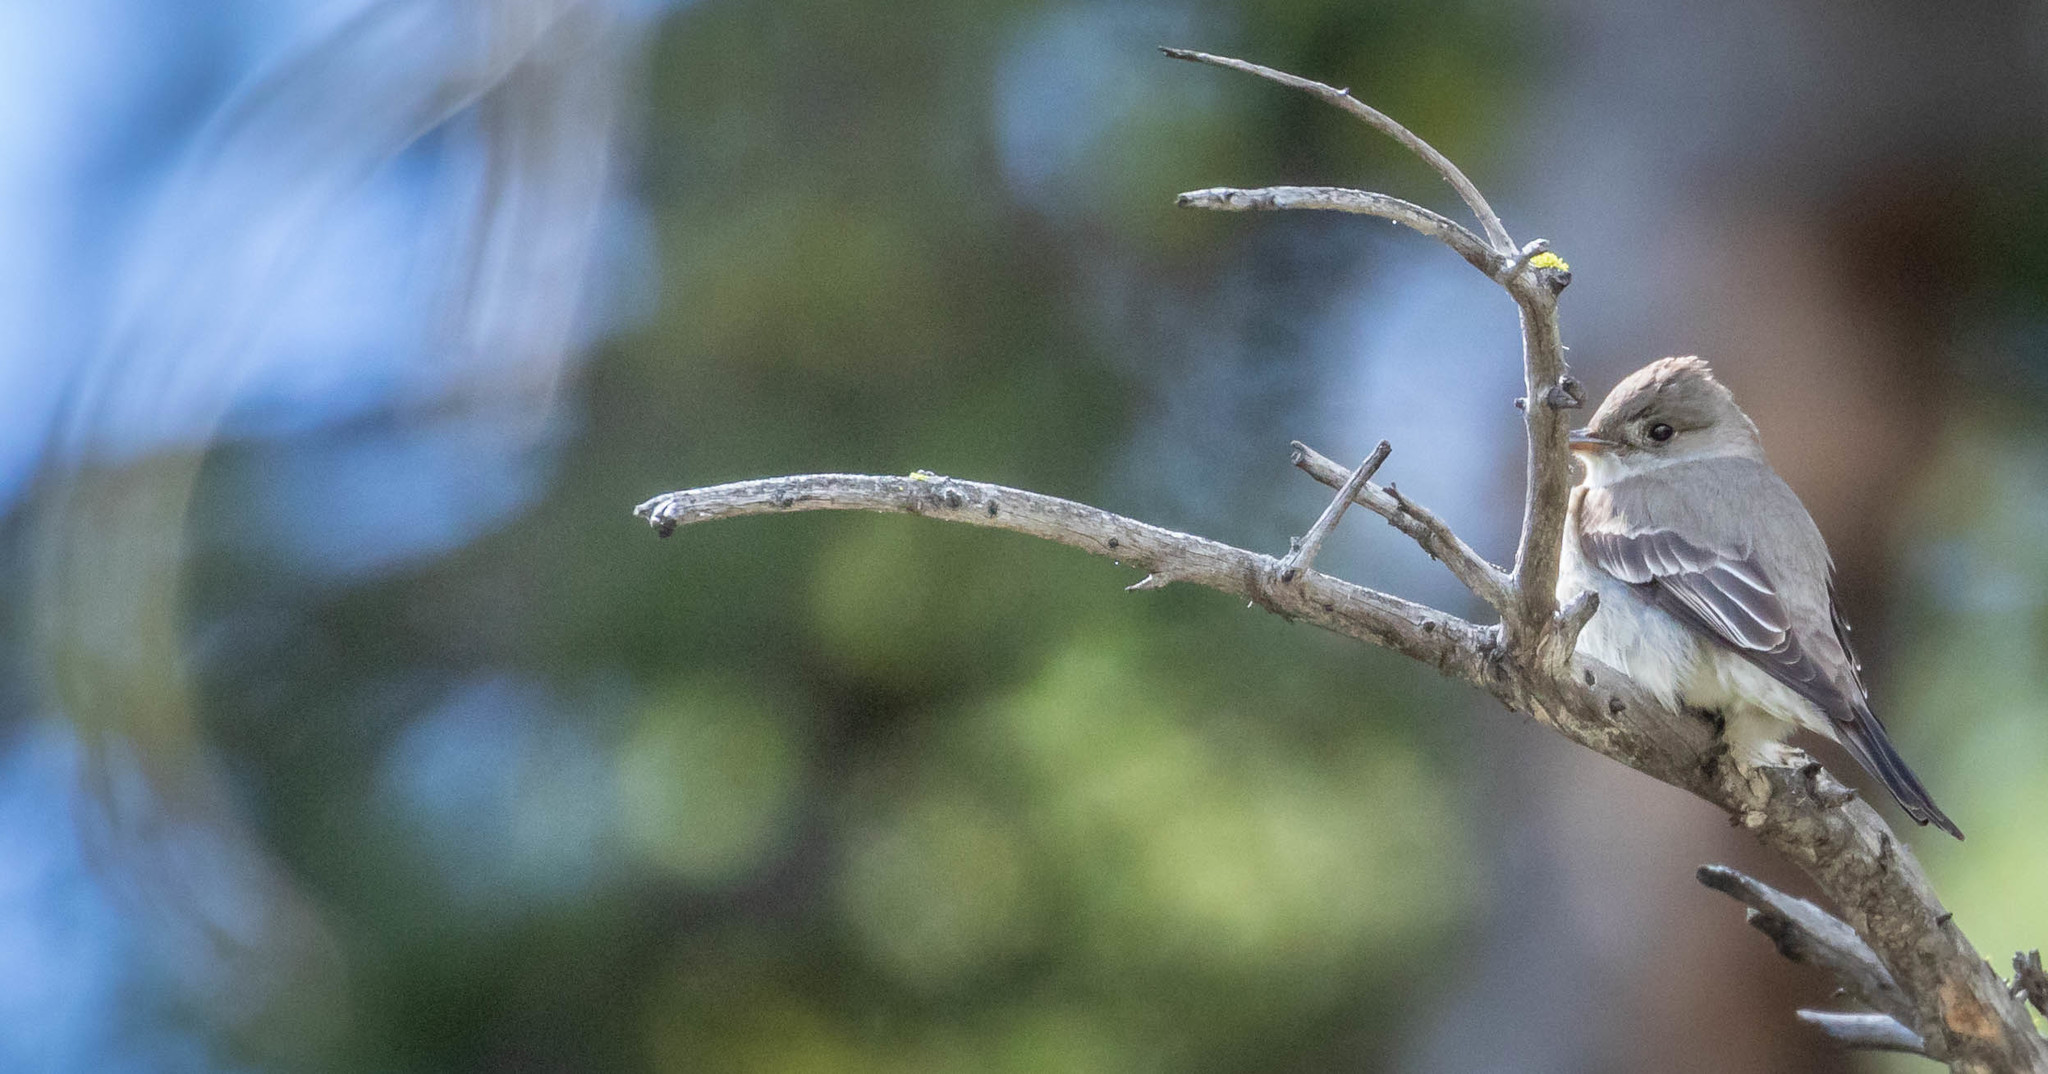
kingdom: Animalia
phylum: Chordata
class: Aves
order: Passeriformes
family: Tyrannidae
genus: Contopus
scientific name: Contopus sordidulus
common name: Western wood-pewee
